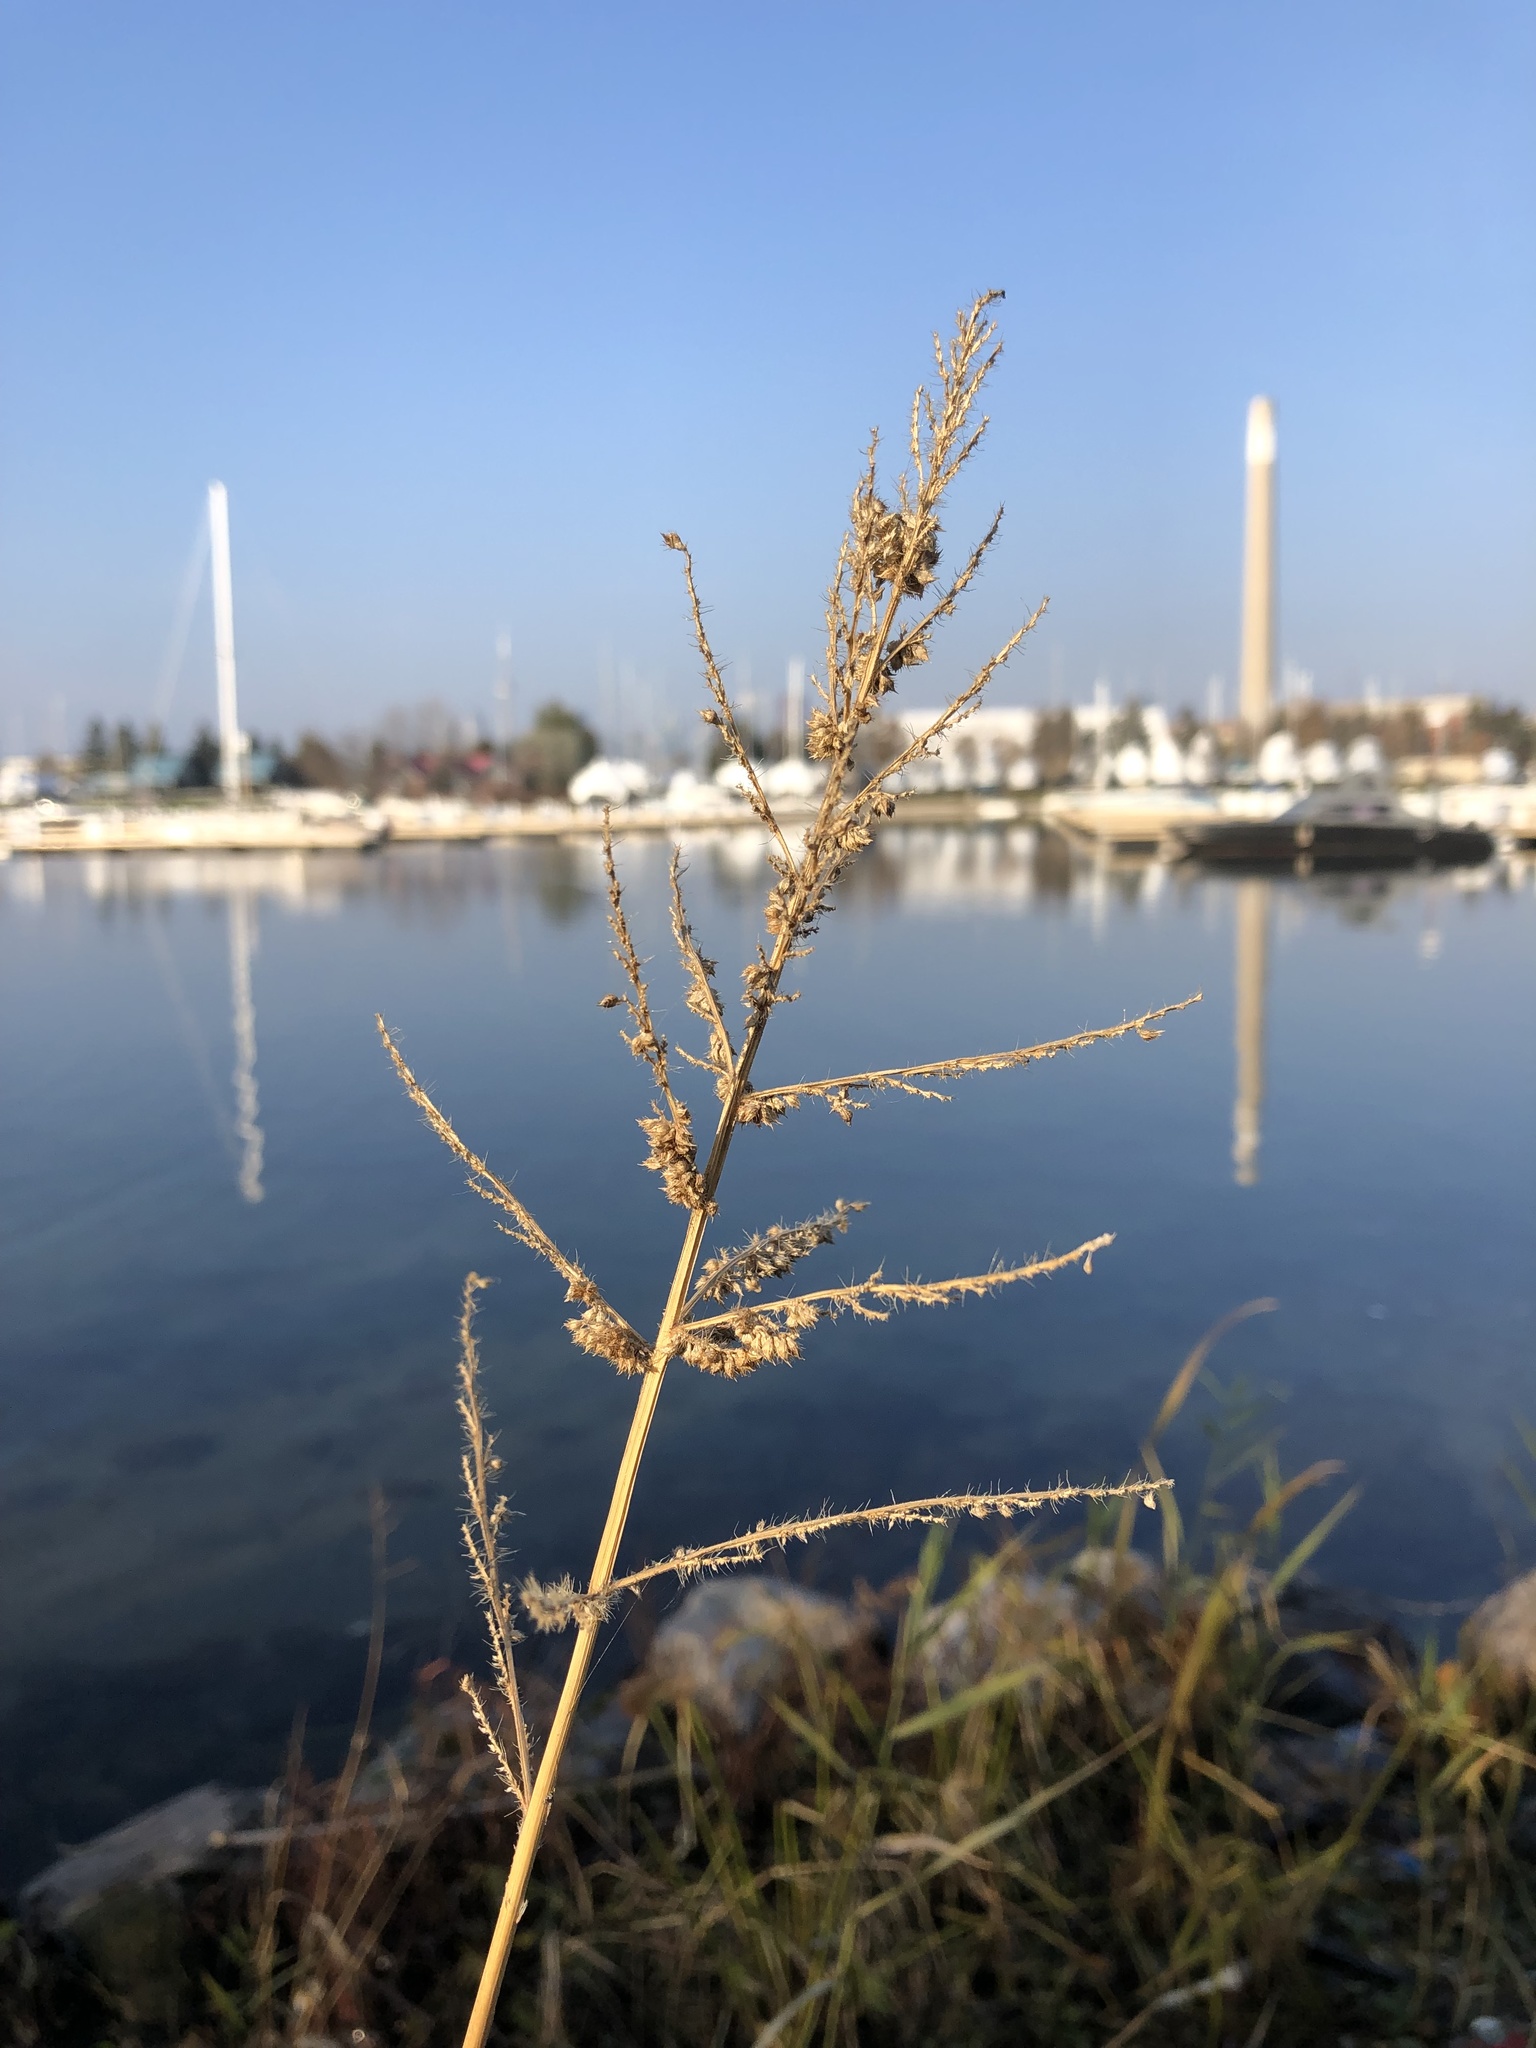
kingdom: Plantae
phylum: Tracheophyta
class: Liliopsida
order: Poales
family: Poaceae
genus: Echinochloa
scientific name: Echinochloa crus-galli
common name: Cockspur
